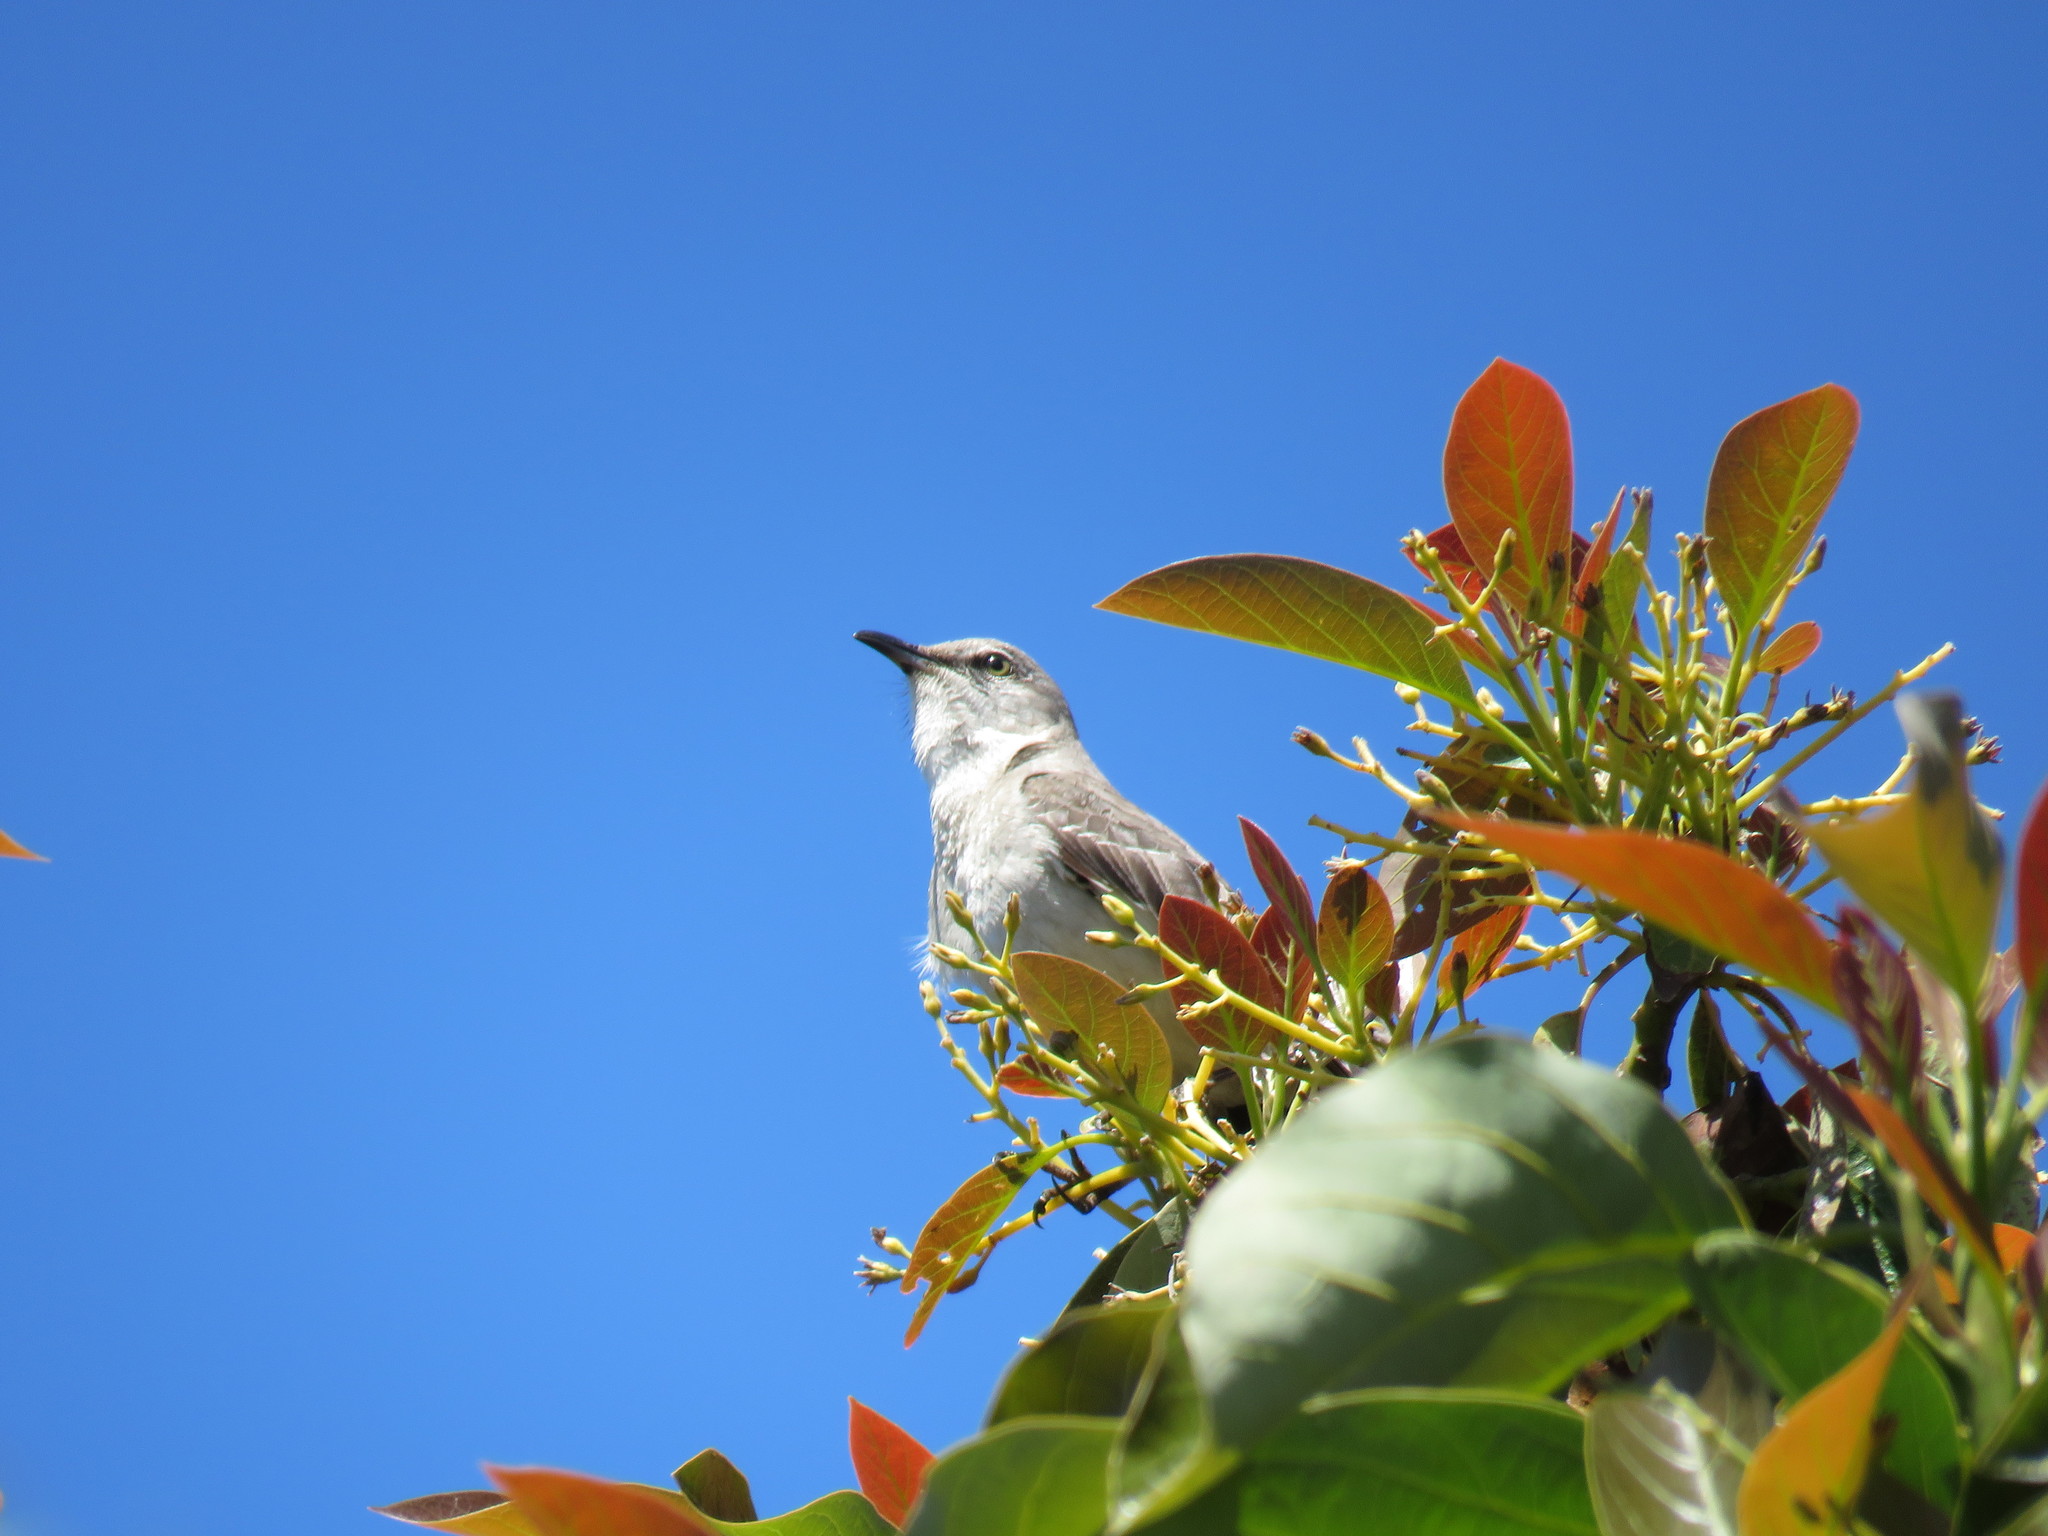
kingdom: Animalia
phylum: Chordata
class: Aves
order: Passeriformes
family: Mimidae
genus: Mimus
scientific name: Mimus polyglottos
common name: Northern mockingbird
